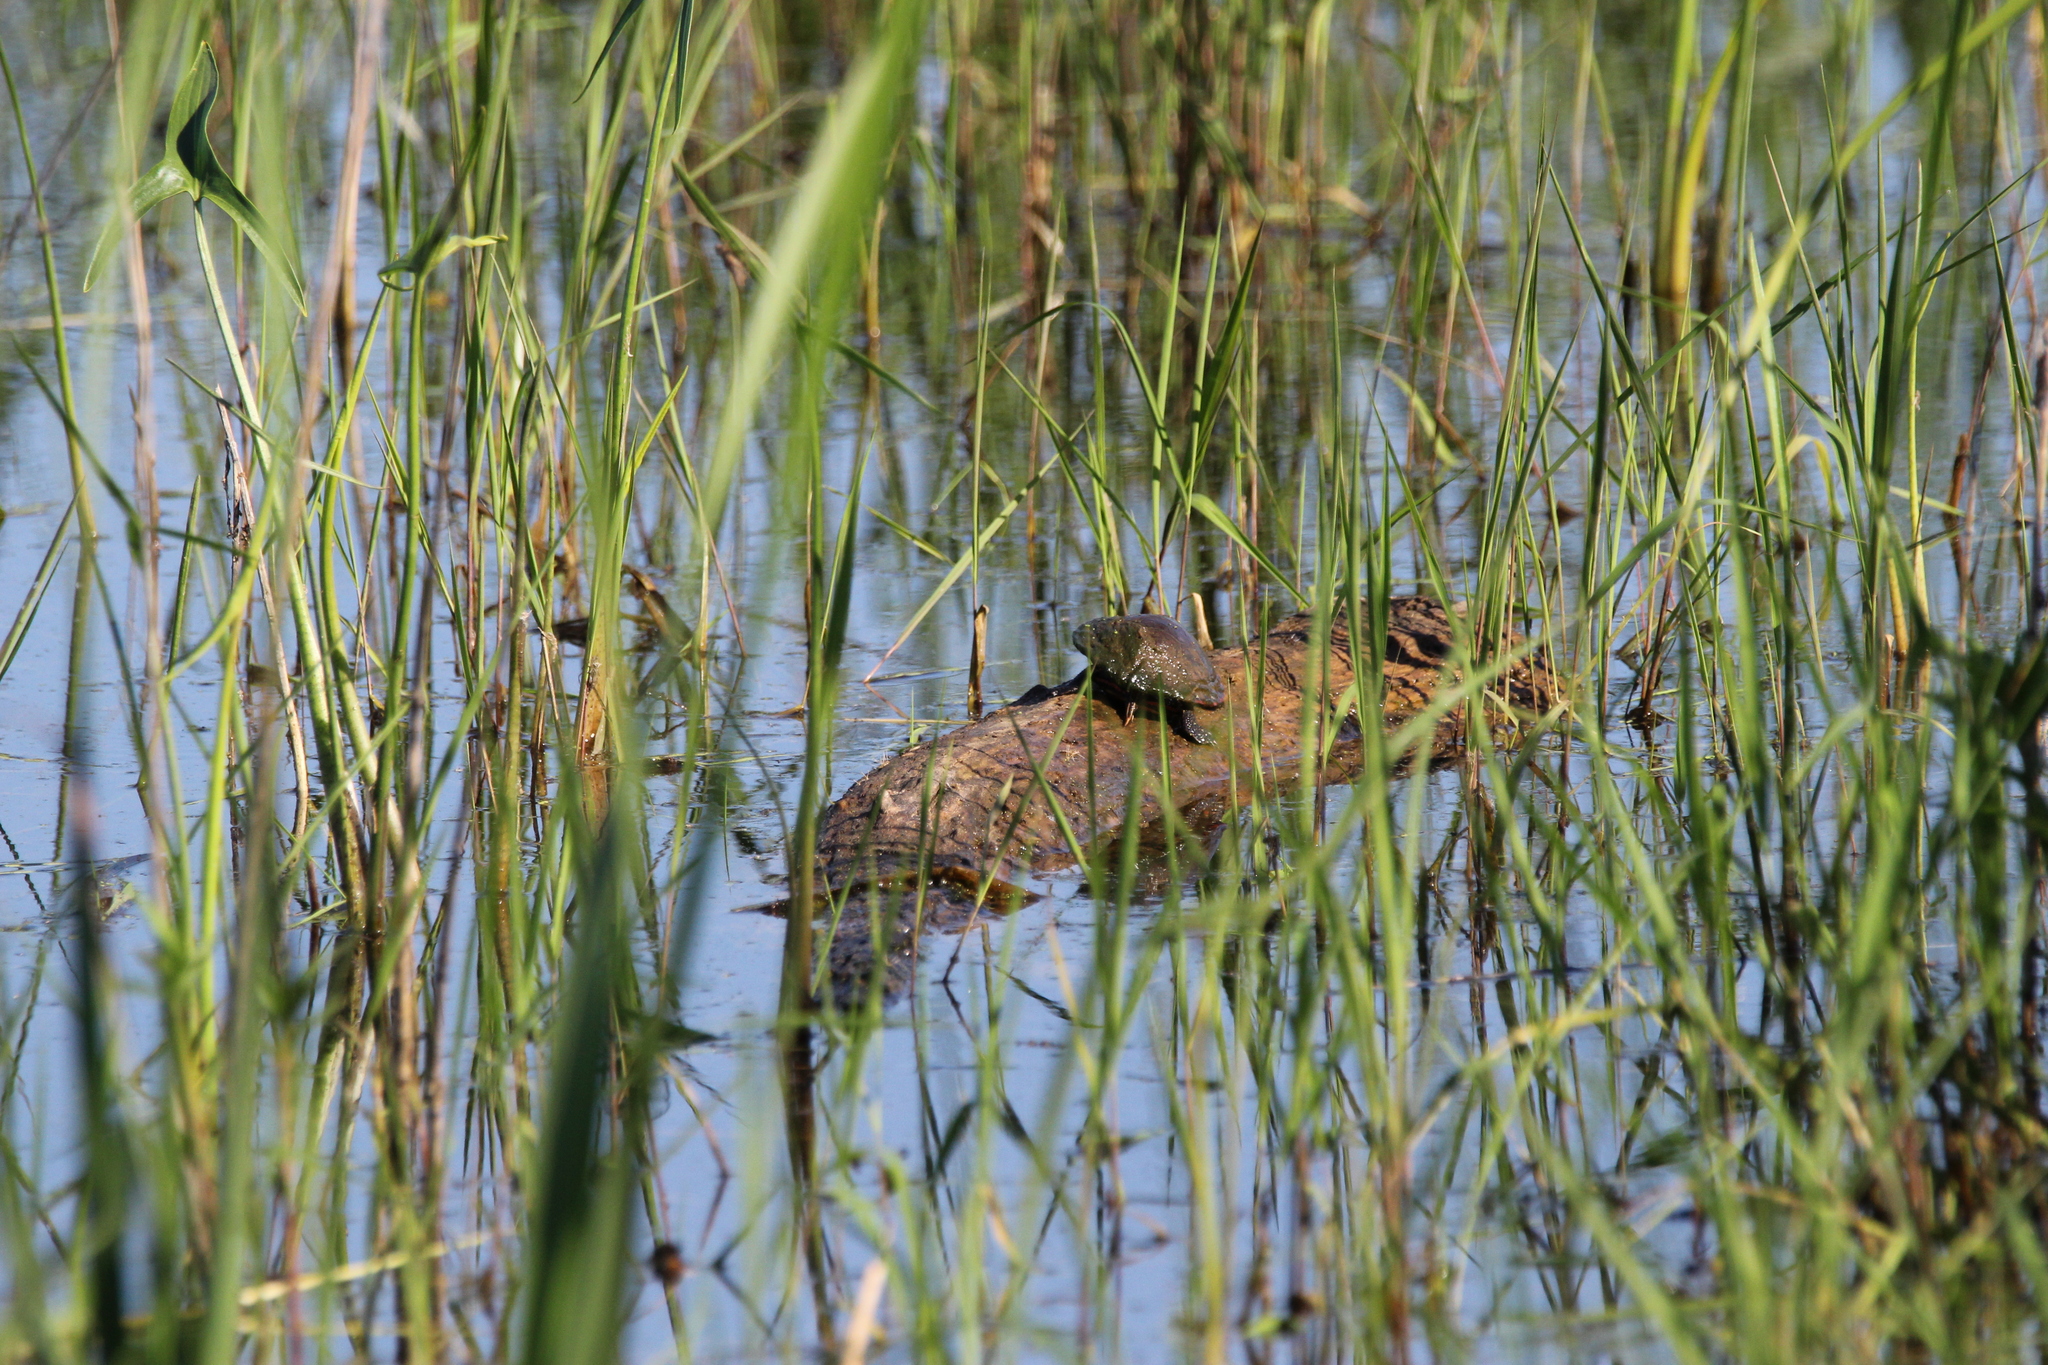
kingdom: Animalia
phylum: Chordata
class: Testudines
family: Emydidae
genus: Chrysemys
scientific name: Chrysemys picta
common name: Painted turtle
